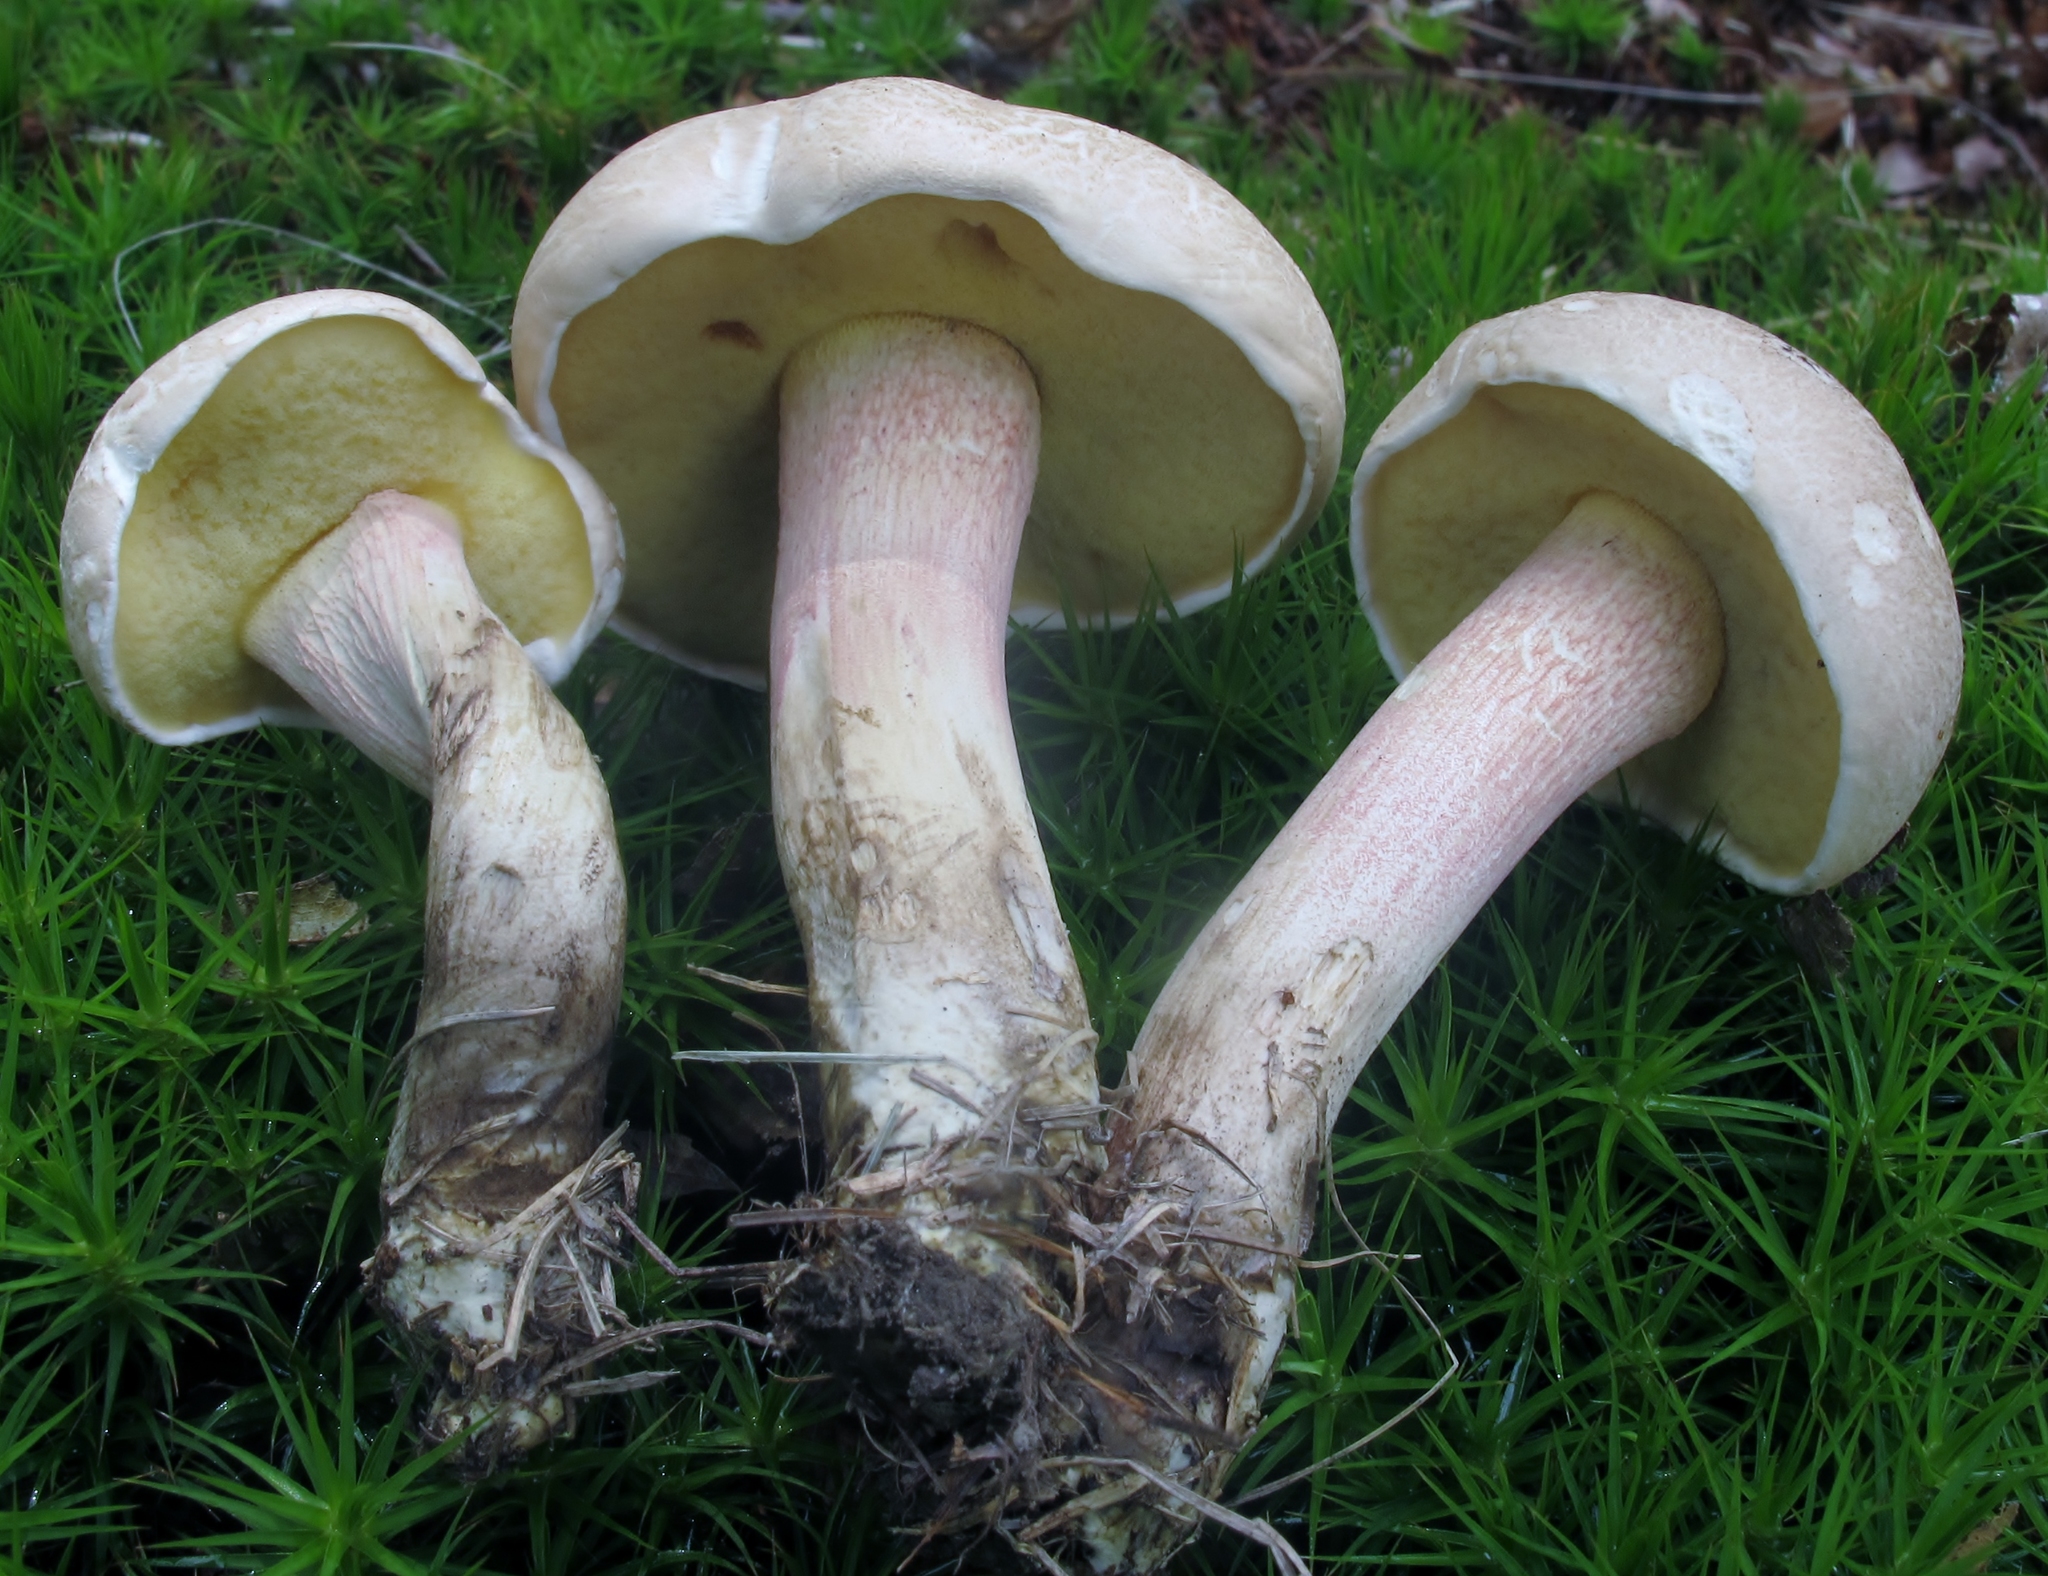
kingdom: Fungi
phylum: Basidiomycota
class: Agaricomycetes
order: Boletales
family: Boletaceae
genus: Caloboletus
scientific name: Caloboletus inedulis
